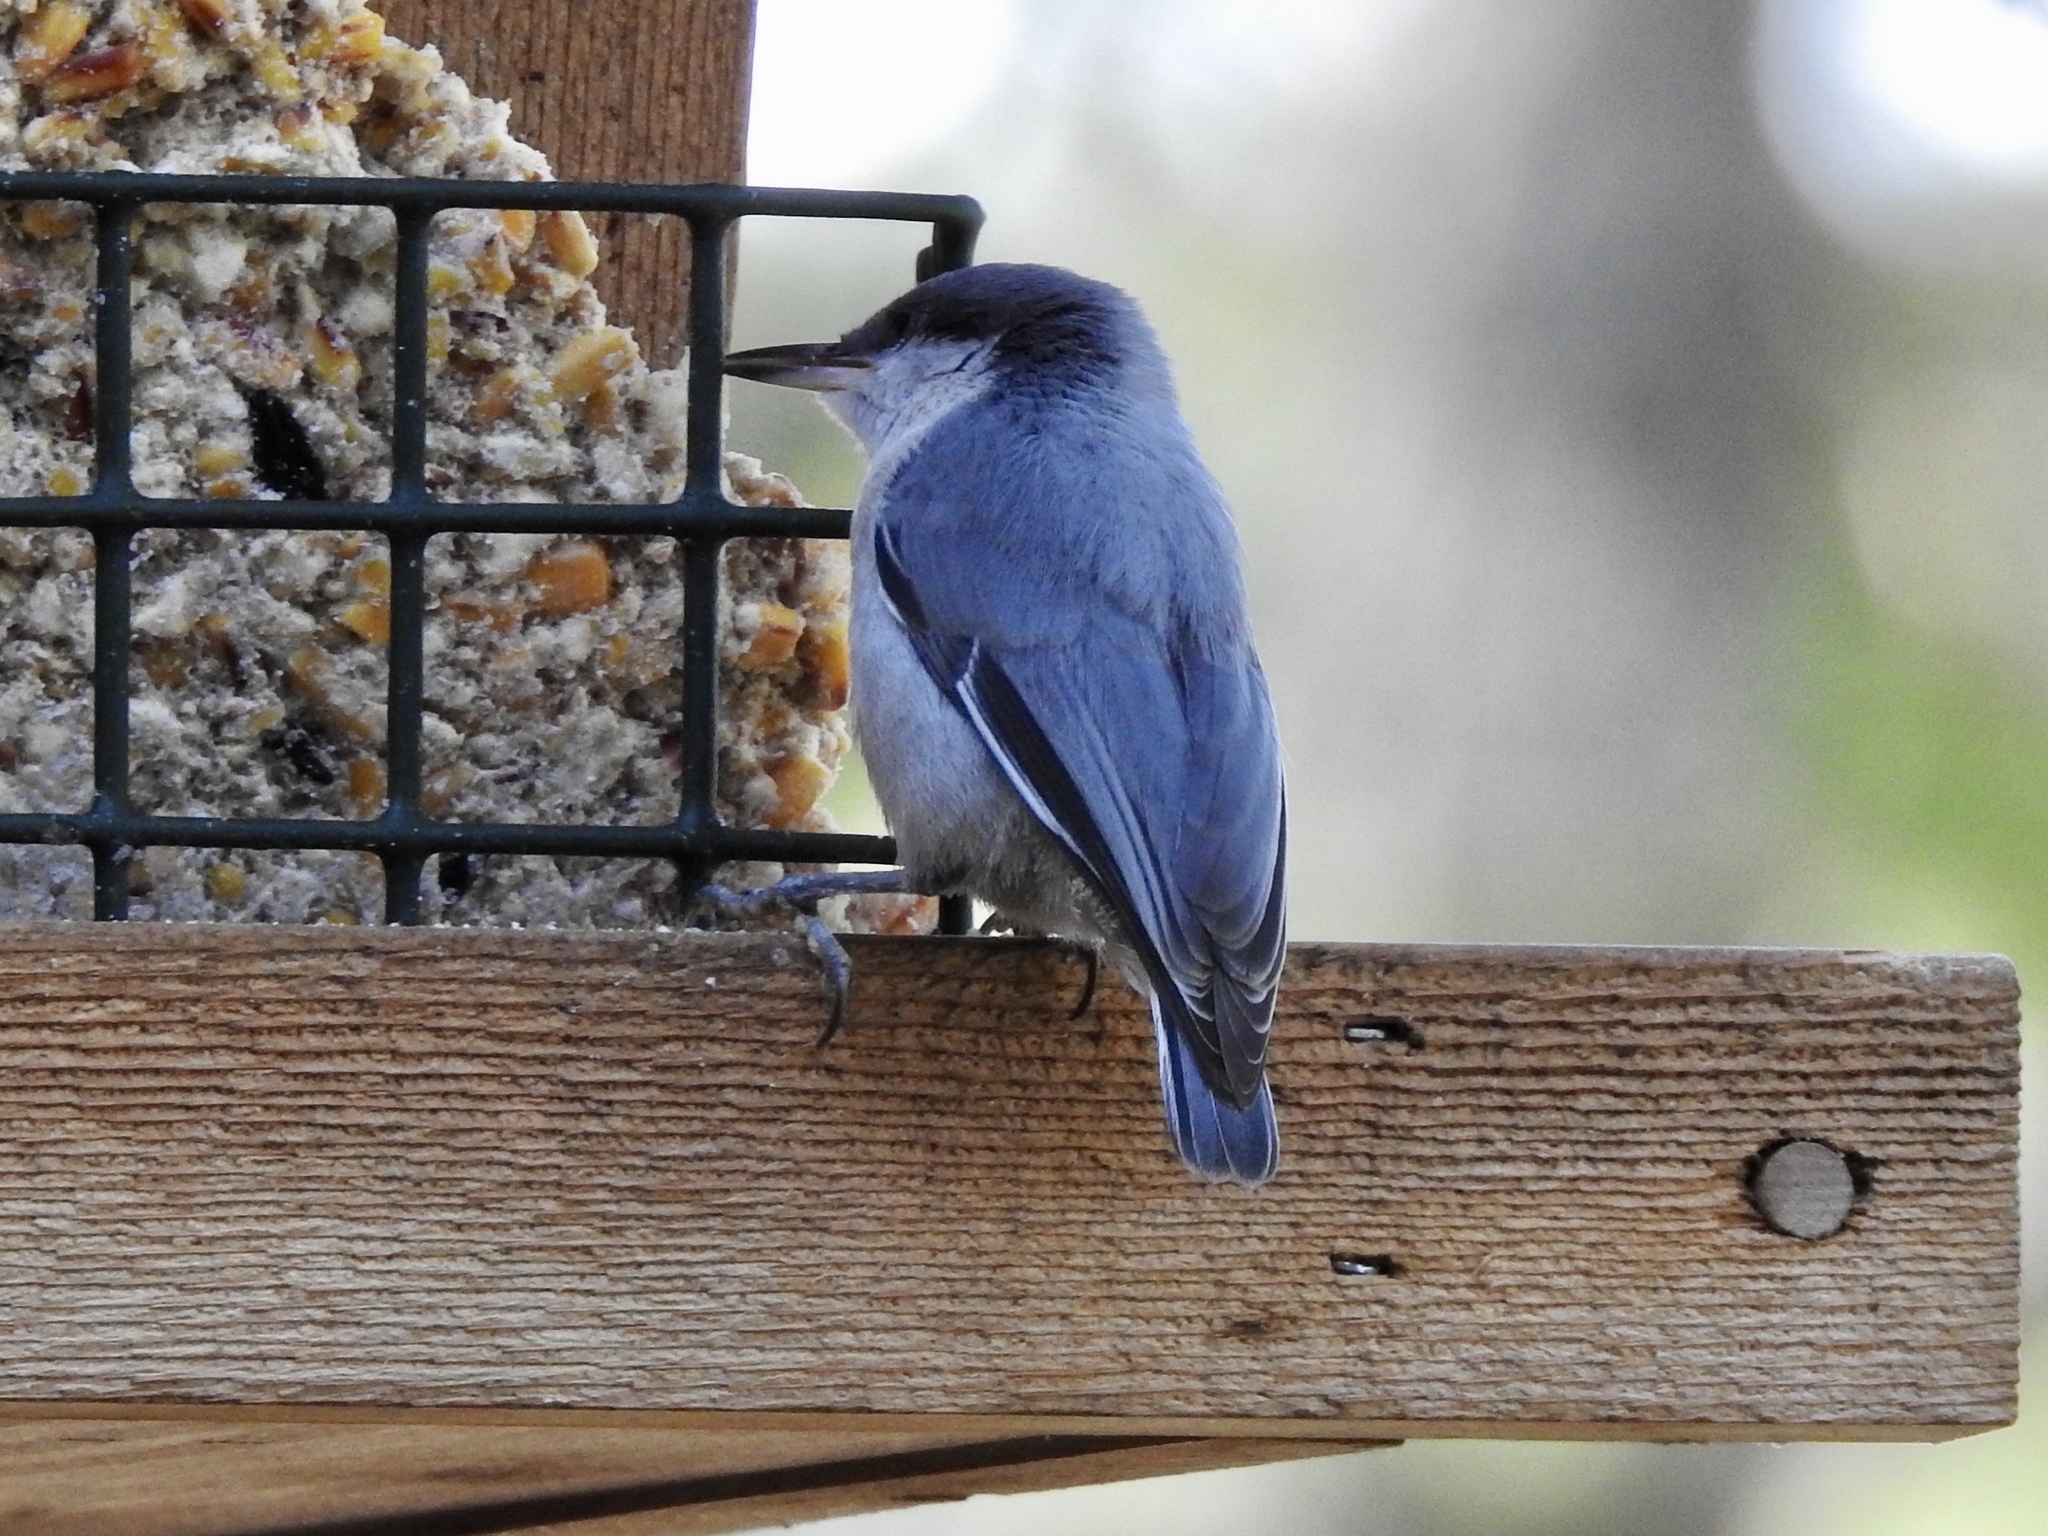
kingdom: Animalia
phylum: Chordata
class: Aves
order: Passeriformes
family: Sittidae
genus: Sitta
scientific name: Sitta pygmaea
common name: Pygmy nuthatch
